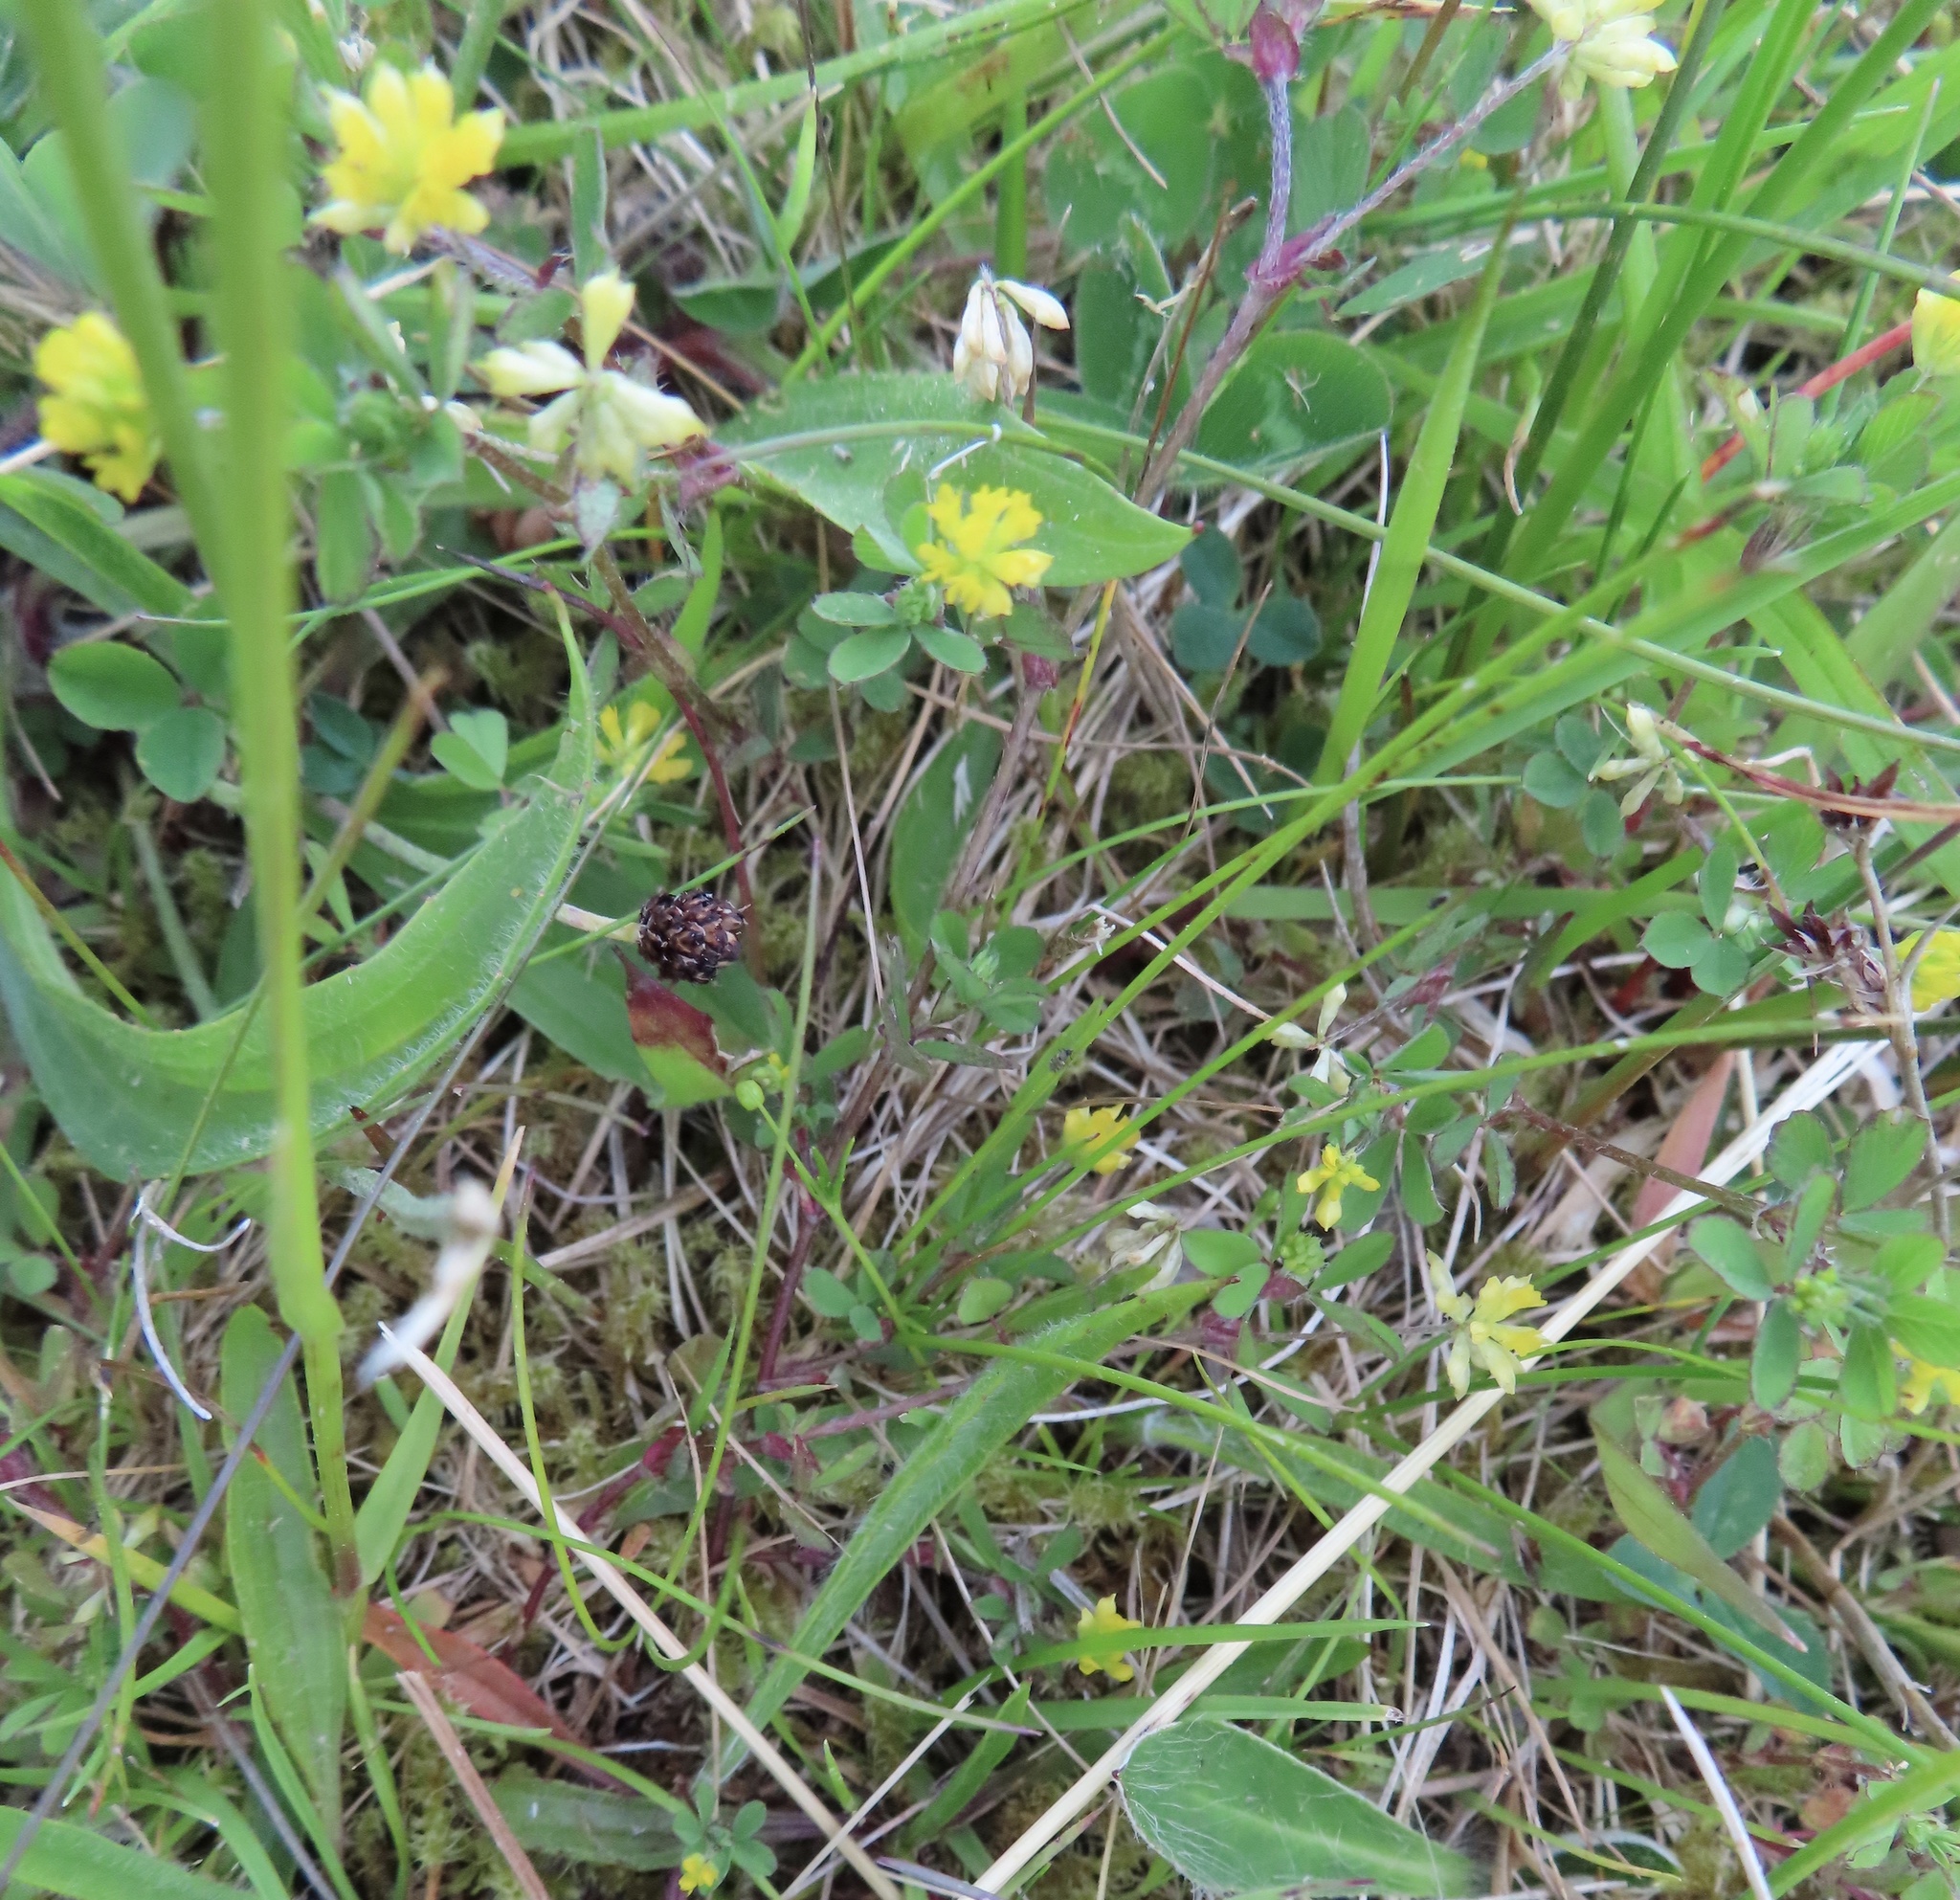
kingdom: Plantae
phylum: Tracheophyta
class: Magnoliopsida
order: Fabales
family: Fabaceae
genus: Trifolium
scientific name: Trifolium dubium
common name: Suckling clover
